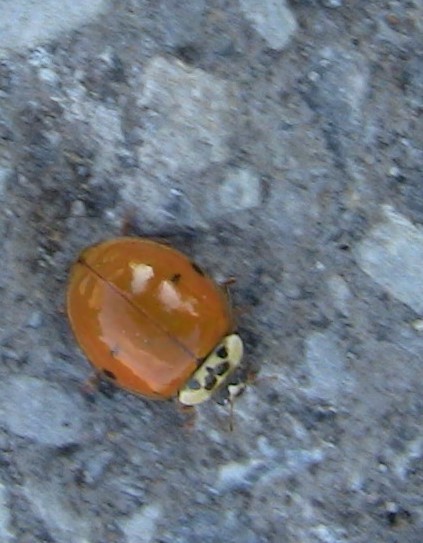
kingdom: Animalia
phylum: Arthropoda
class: Insecta
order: Coleoptera
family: Coccinellidae
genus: Harmonia
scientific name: Harmonia axyridis
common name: Harlequin ladybird
